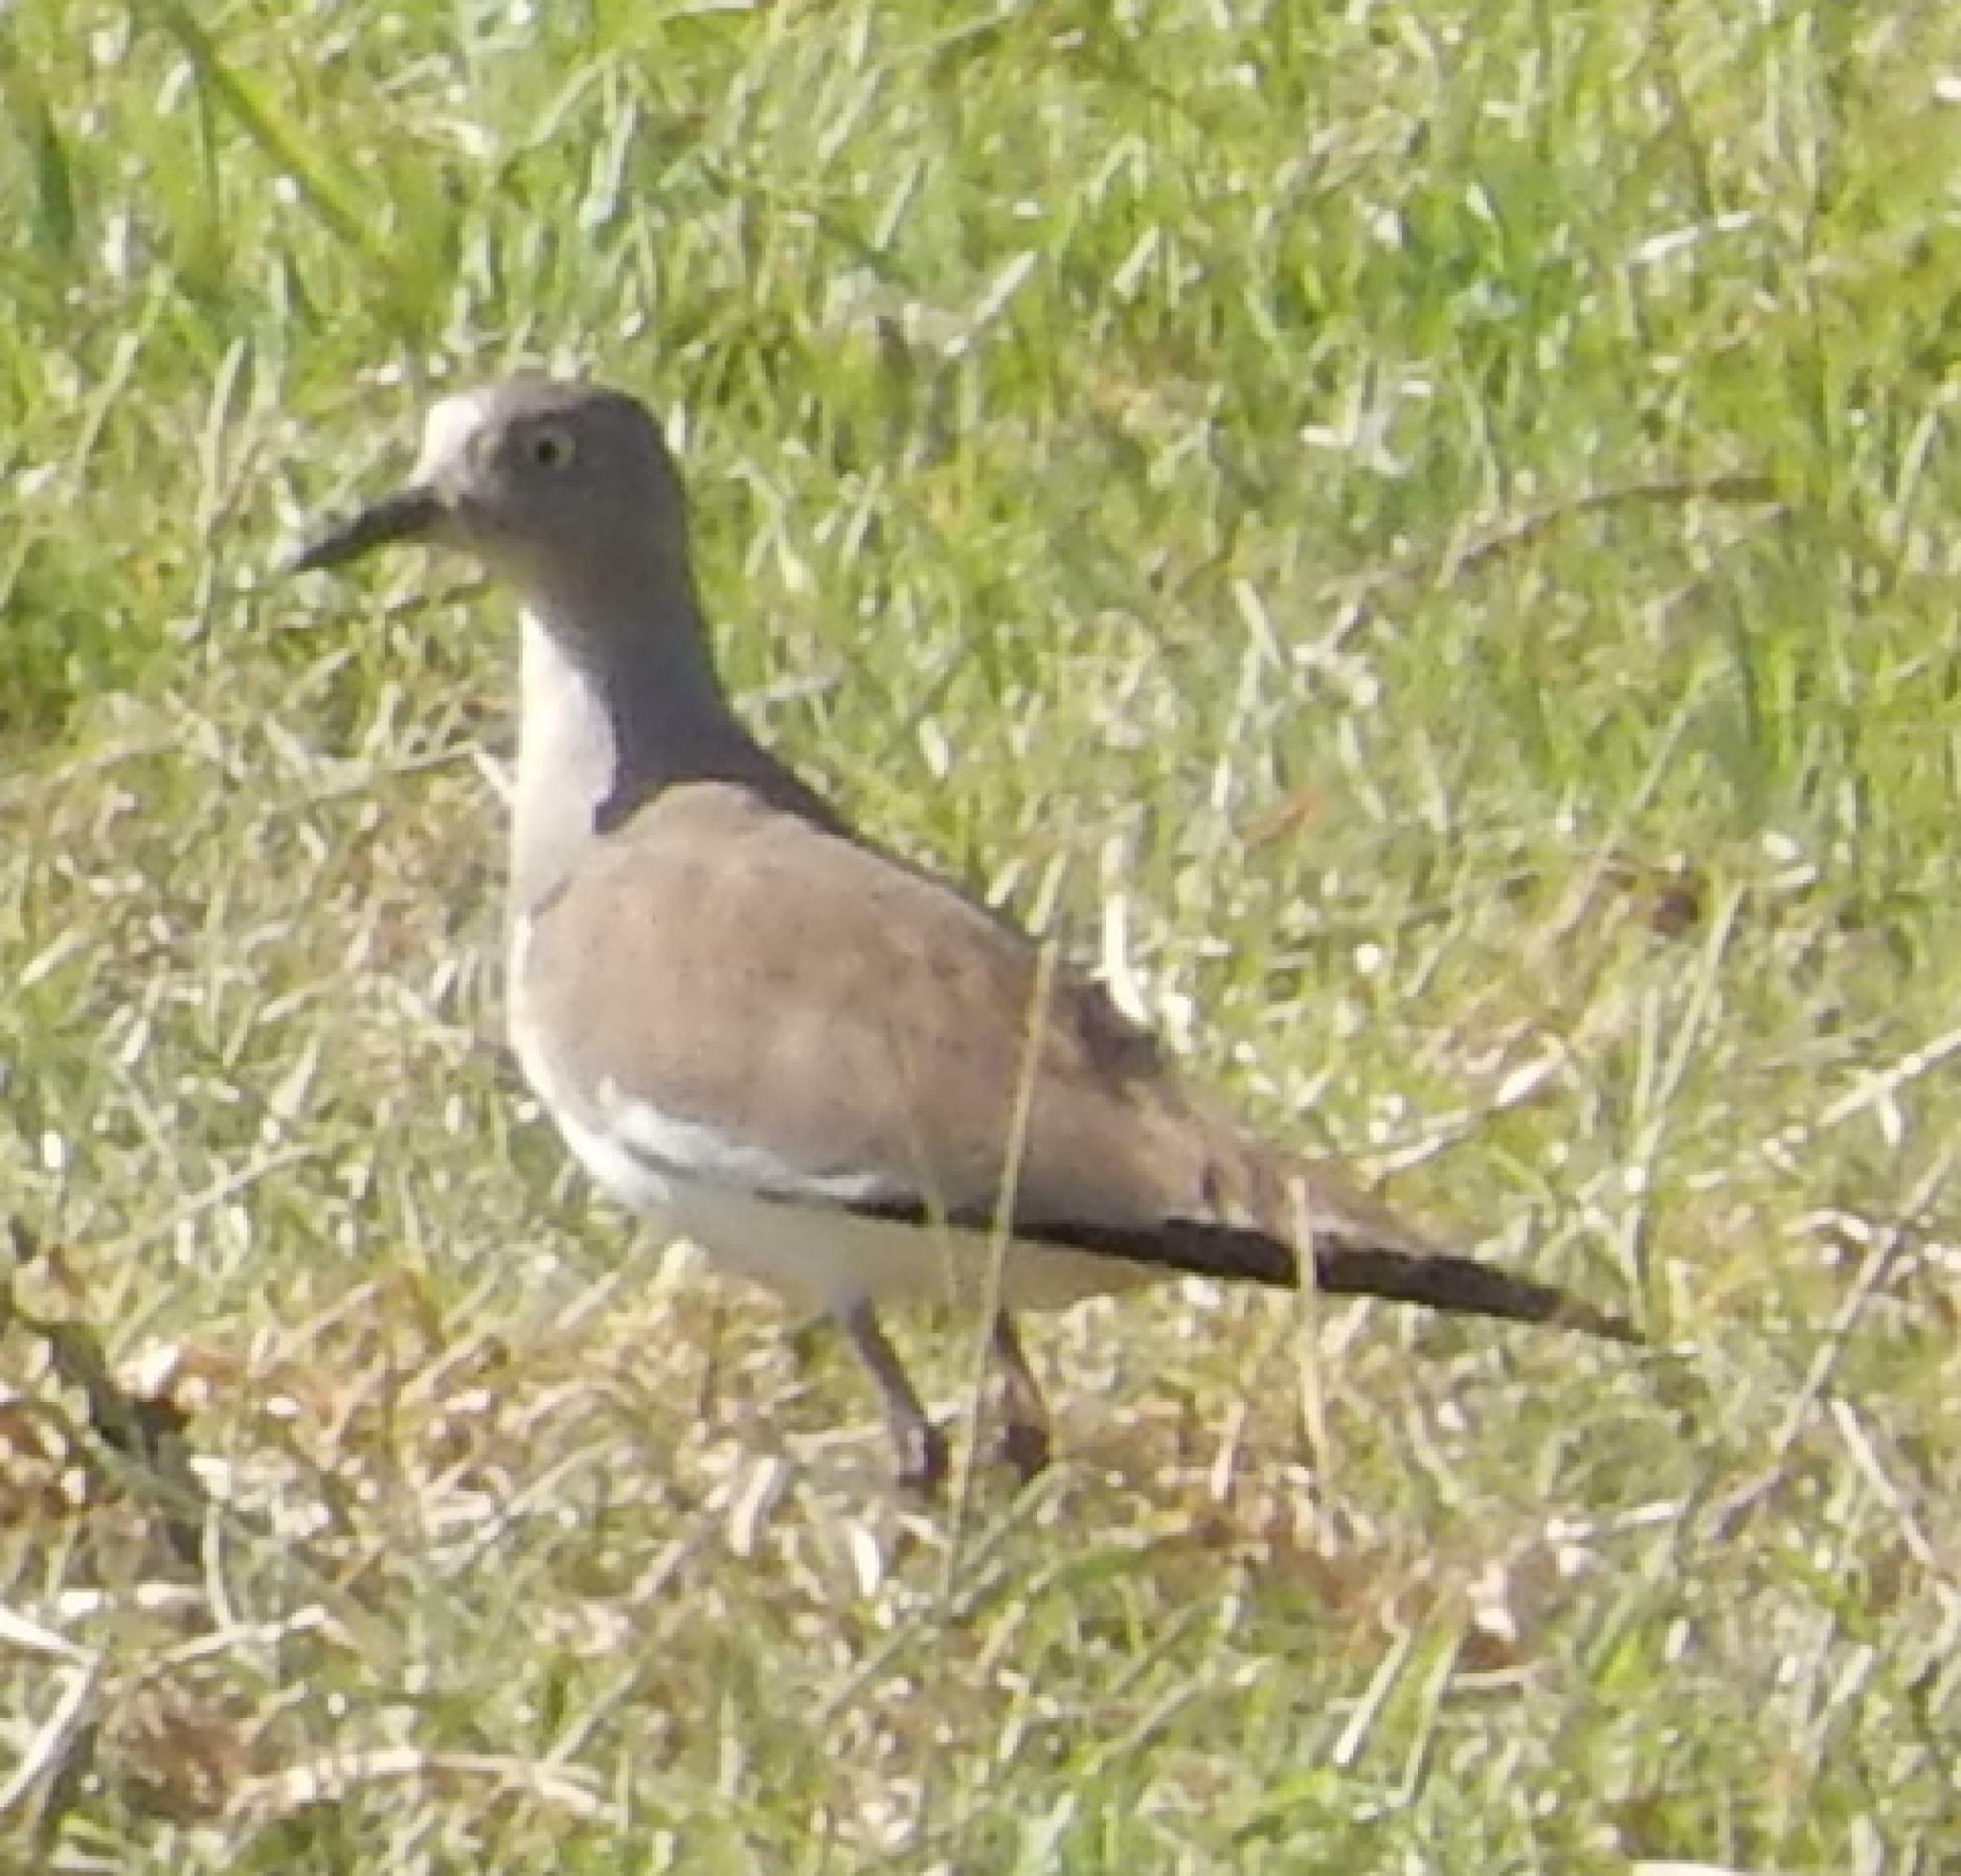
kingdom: Animalia
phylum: Chordata
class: Aves
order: Charadriiformes
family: Charadriidae
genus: Vanellus
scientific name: Vanellus melanopterus
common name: Black-winged lapwing
